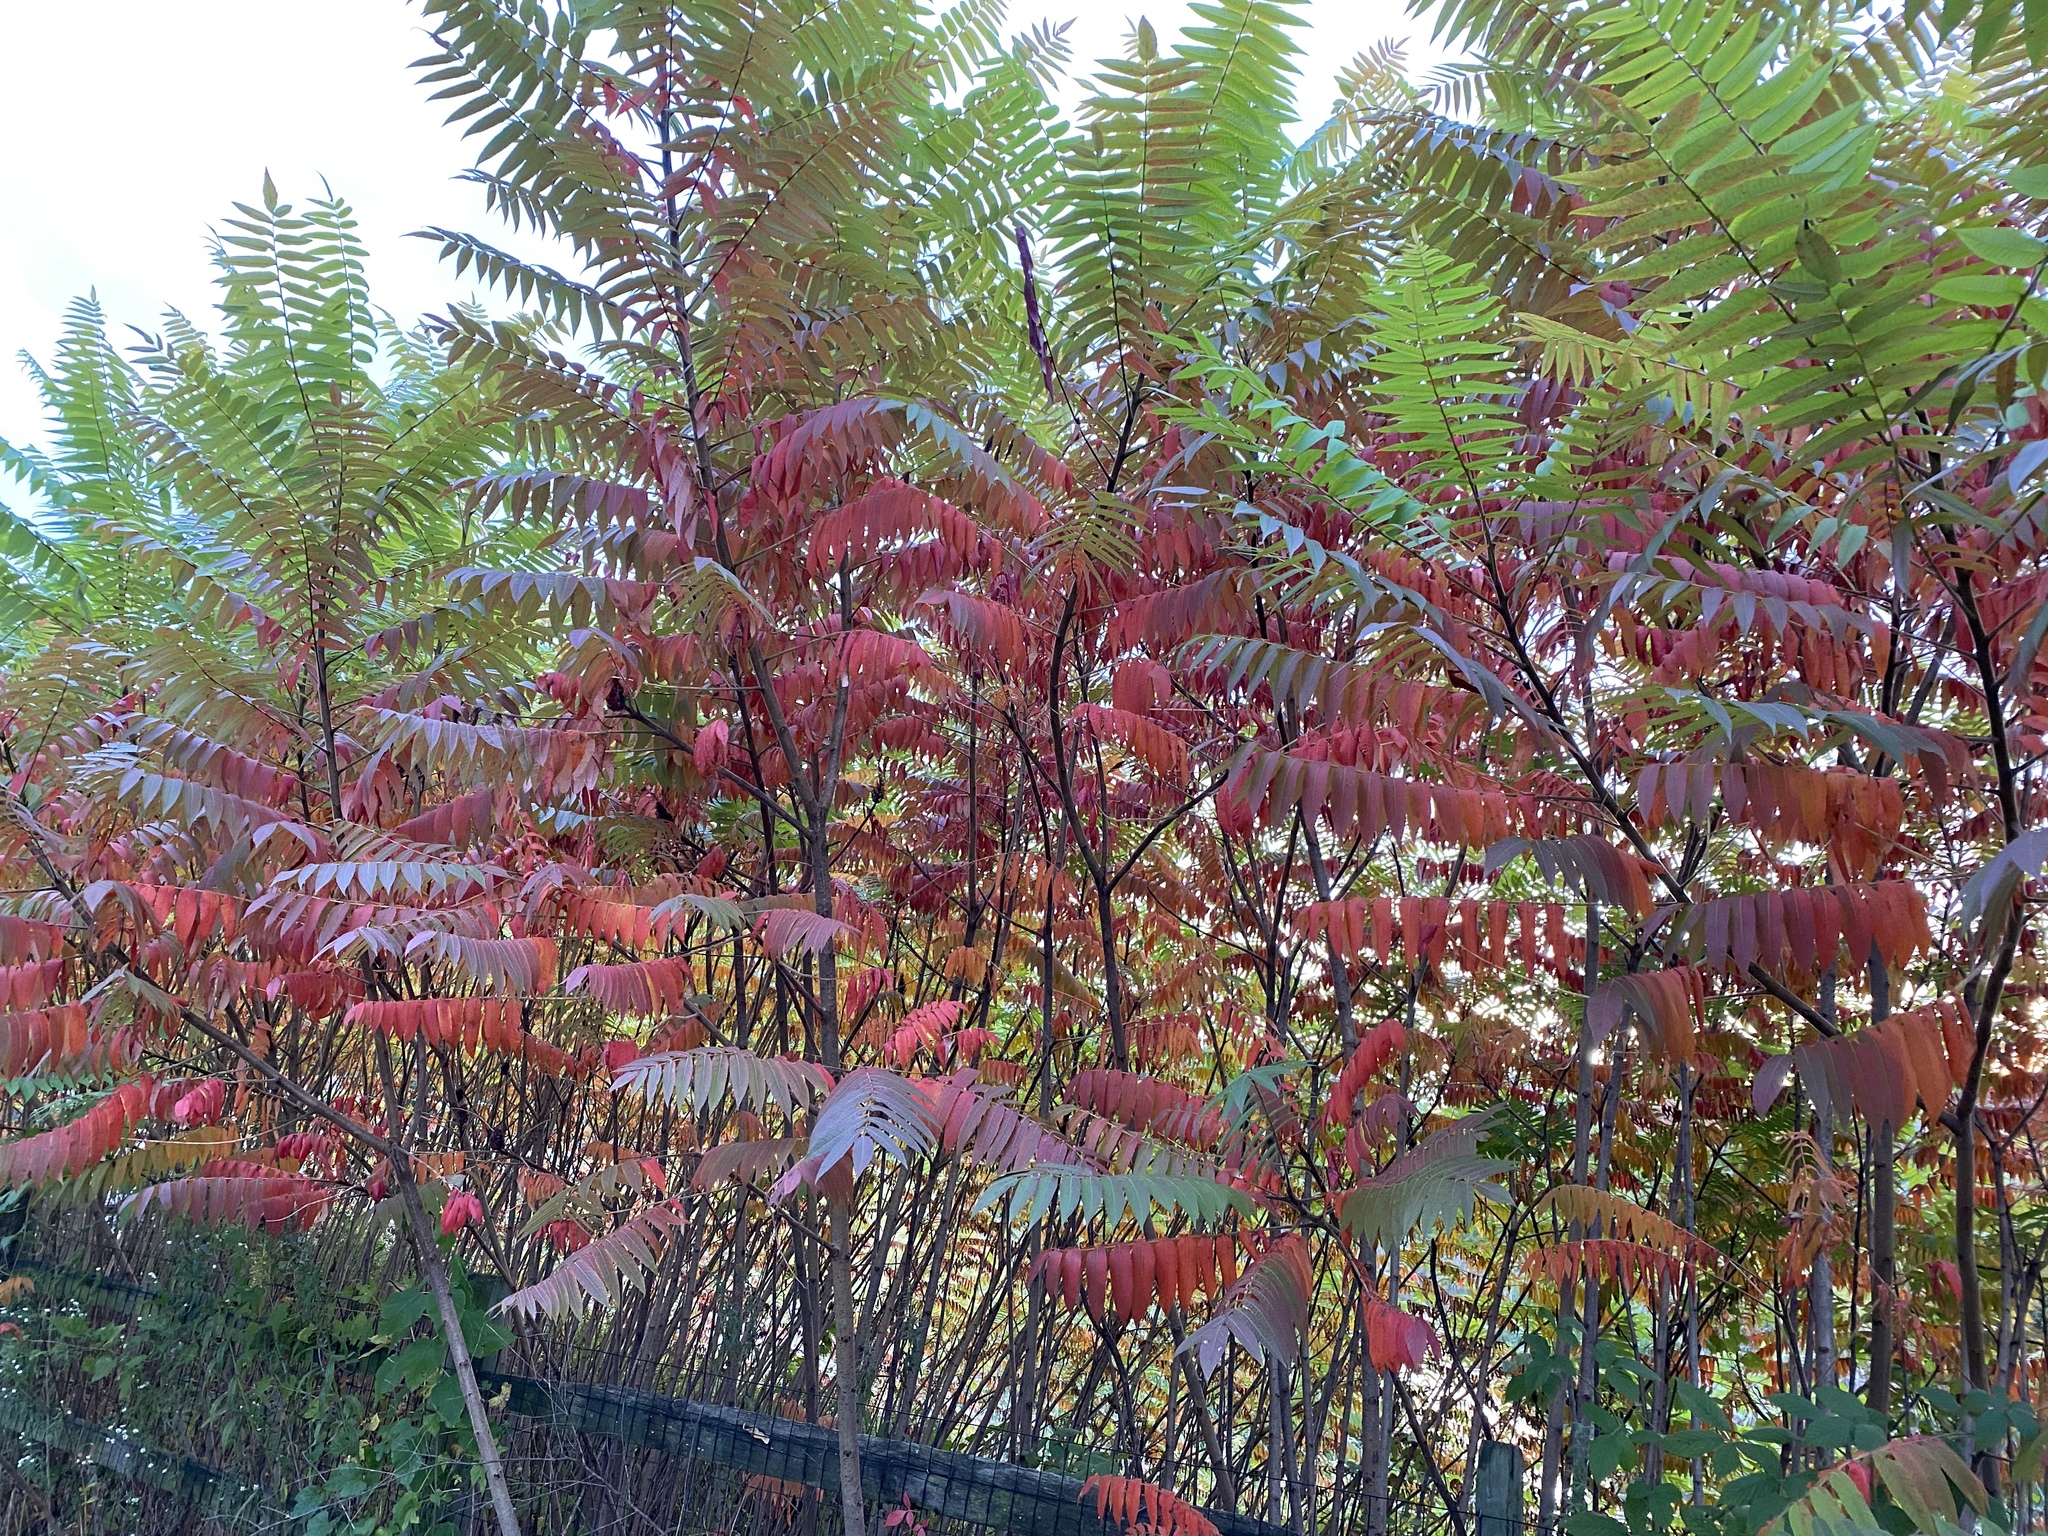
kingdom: Plantae
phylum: Tracheophyta
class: Magnoliopsida
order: Sapindales
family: Anacardiaceae
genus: Rhus
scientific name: Rhus typhina
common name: Staghorn sumac
